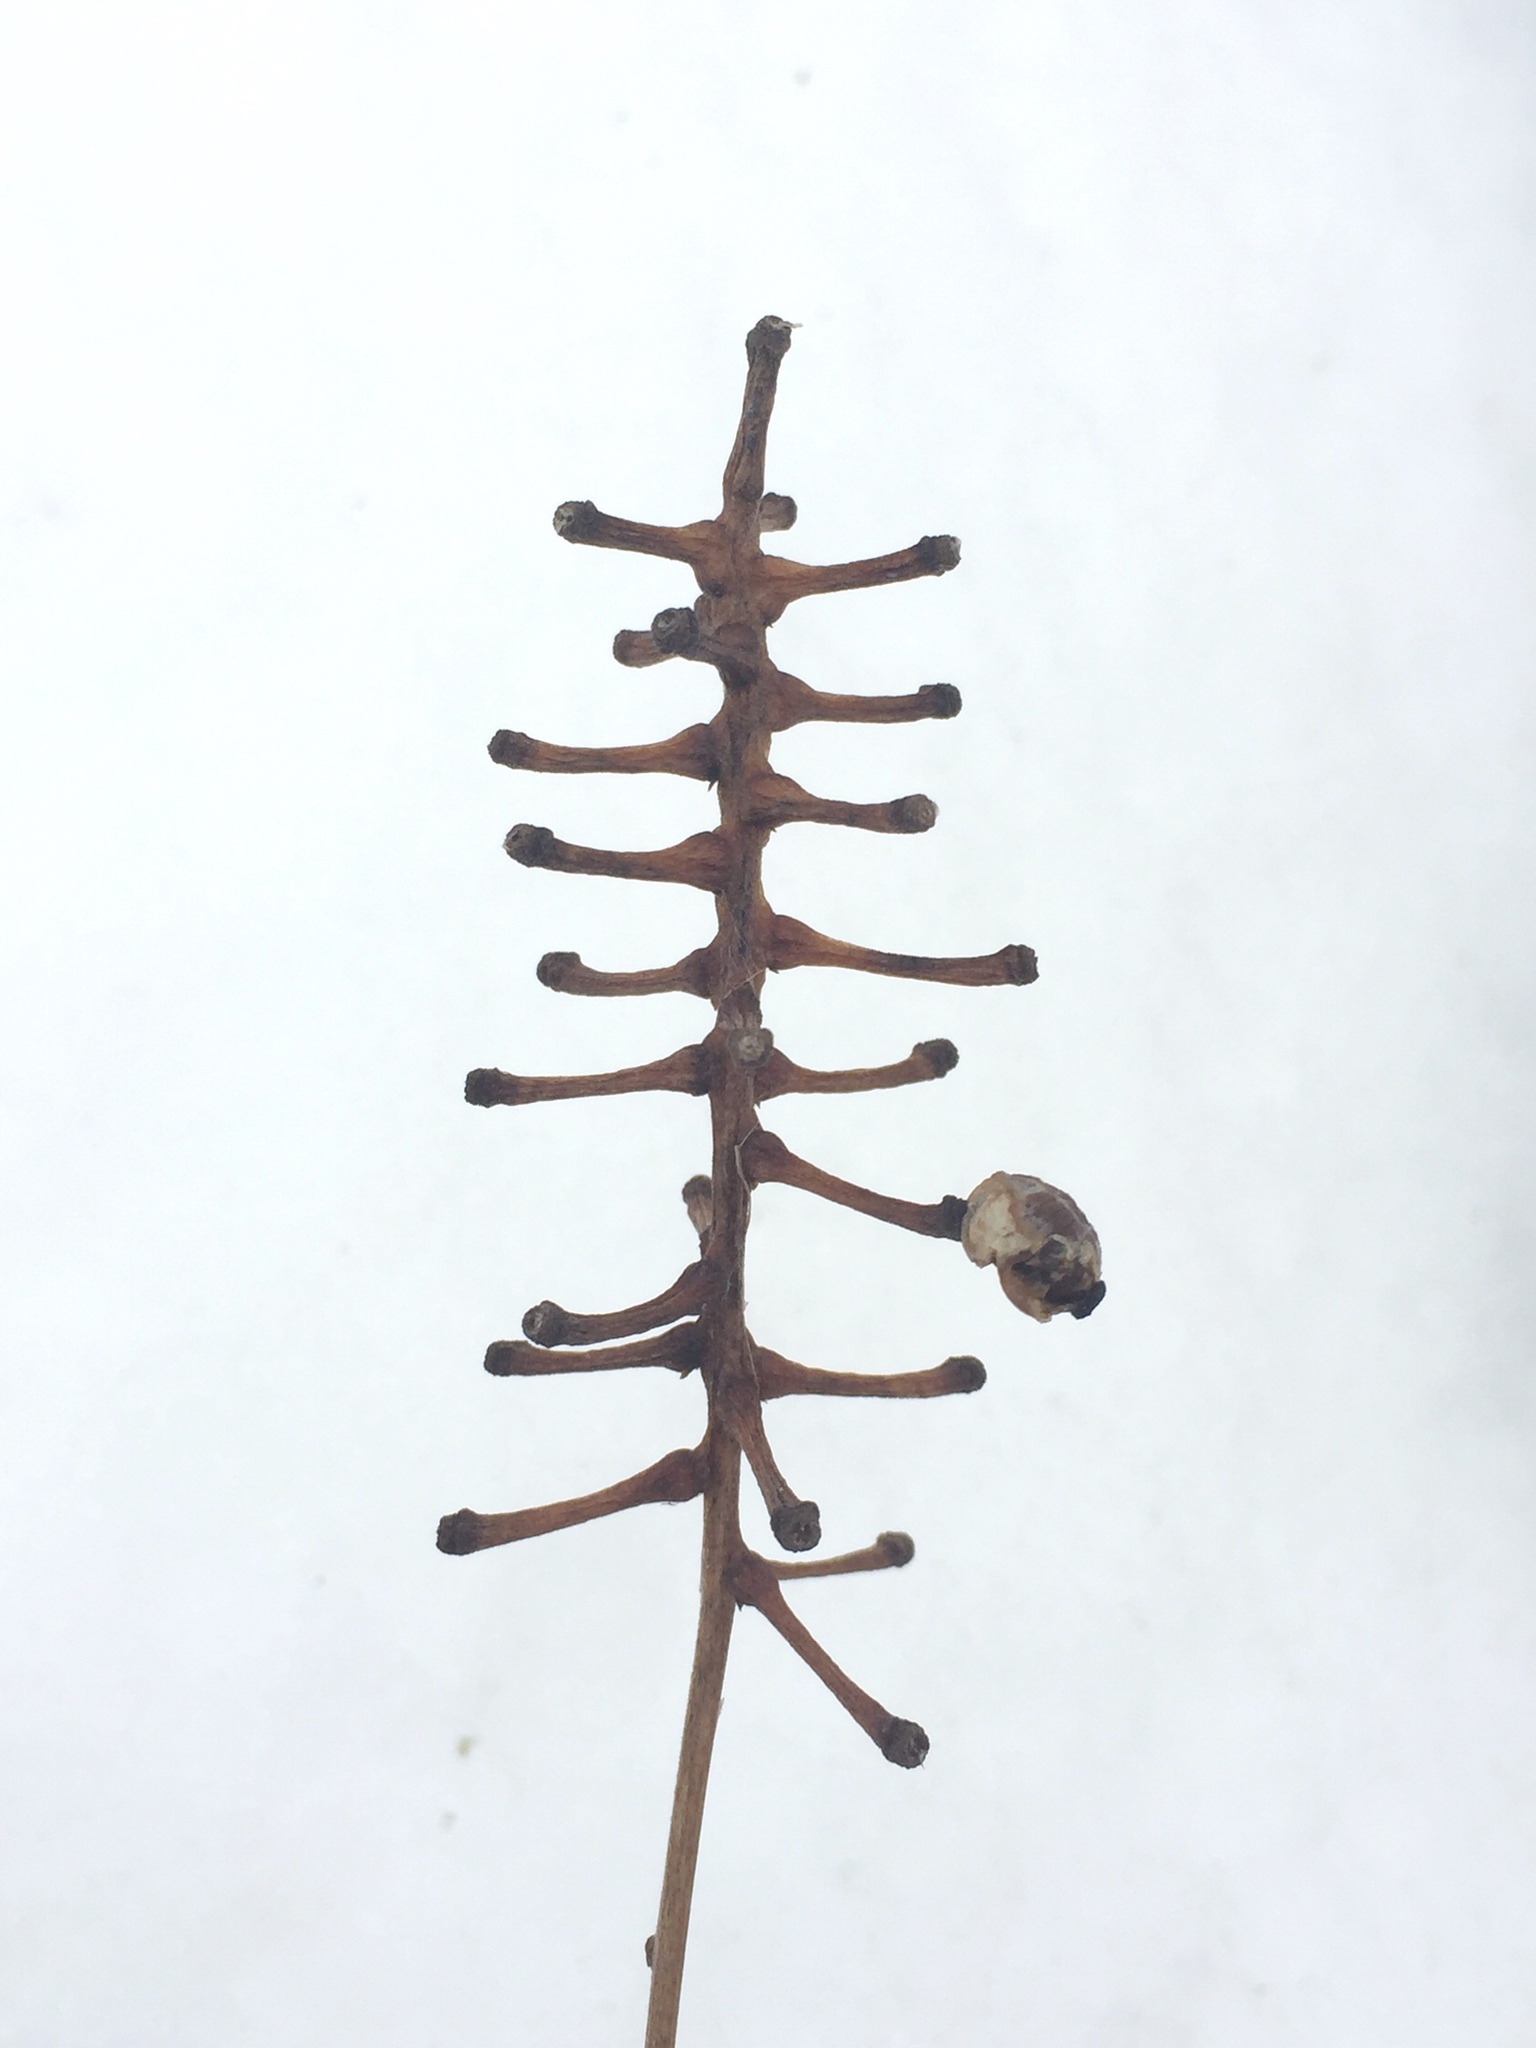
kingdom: Plantae
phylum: Tracheophyta
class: Magnoliopsida
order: Ranunculales
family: Ranunculaceae
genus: Actaea
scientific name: Actaea pachypoda
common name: Doll's-eyes
